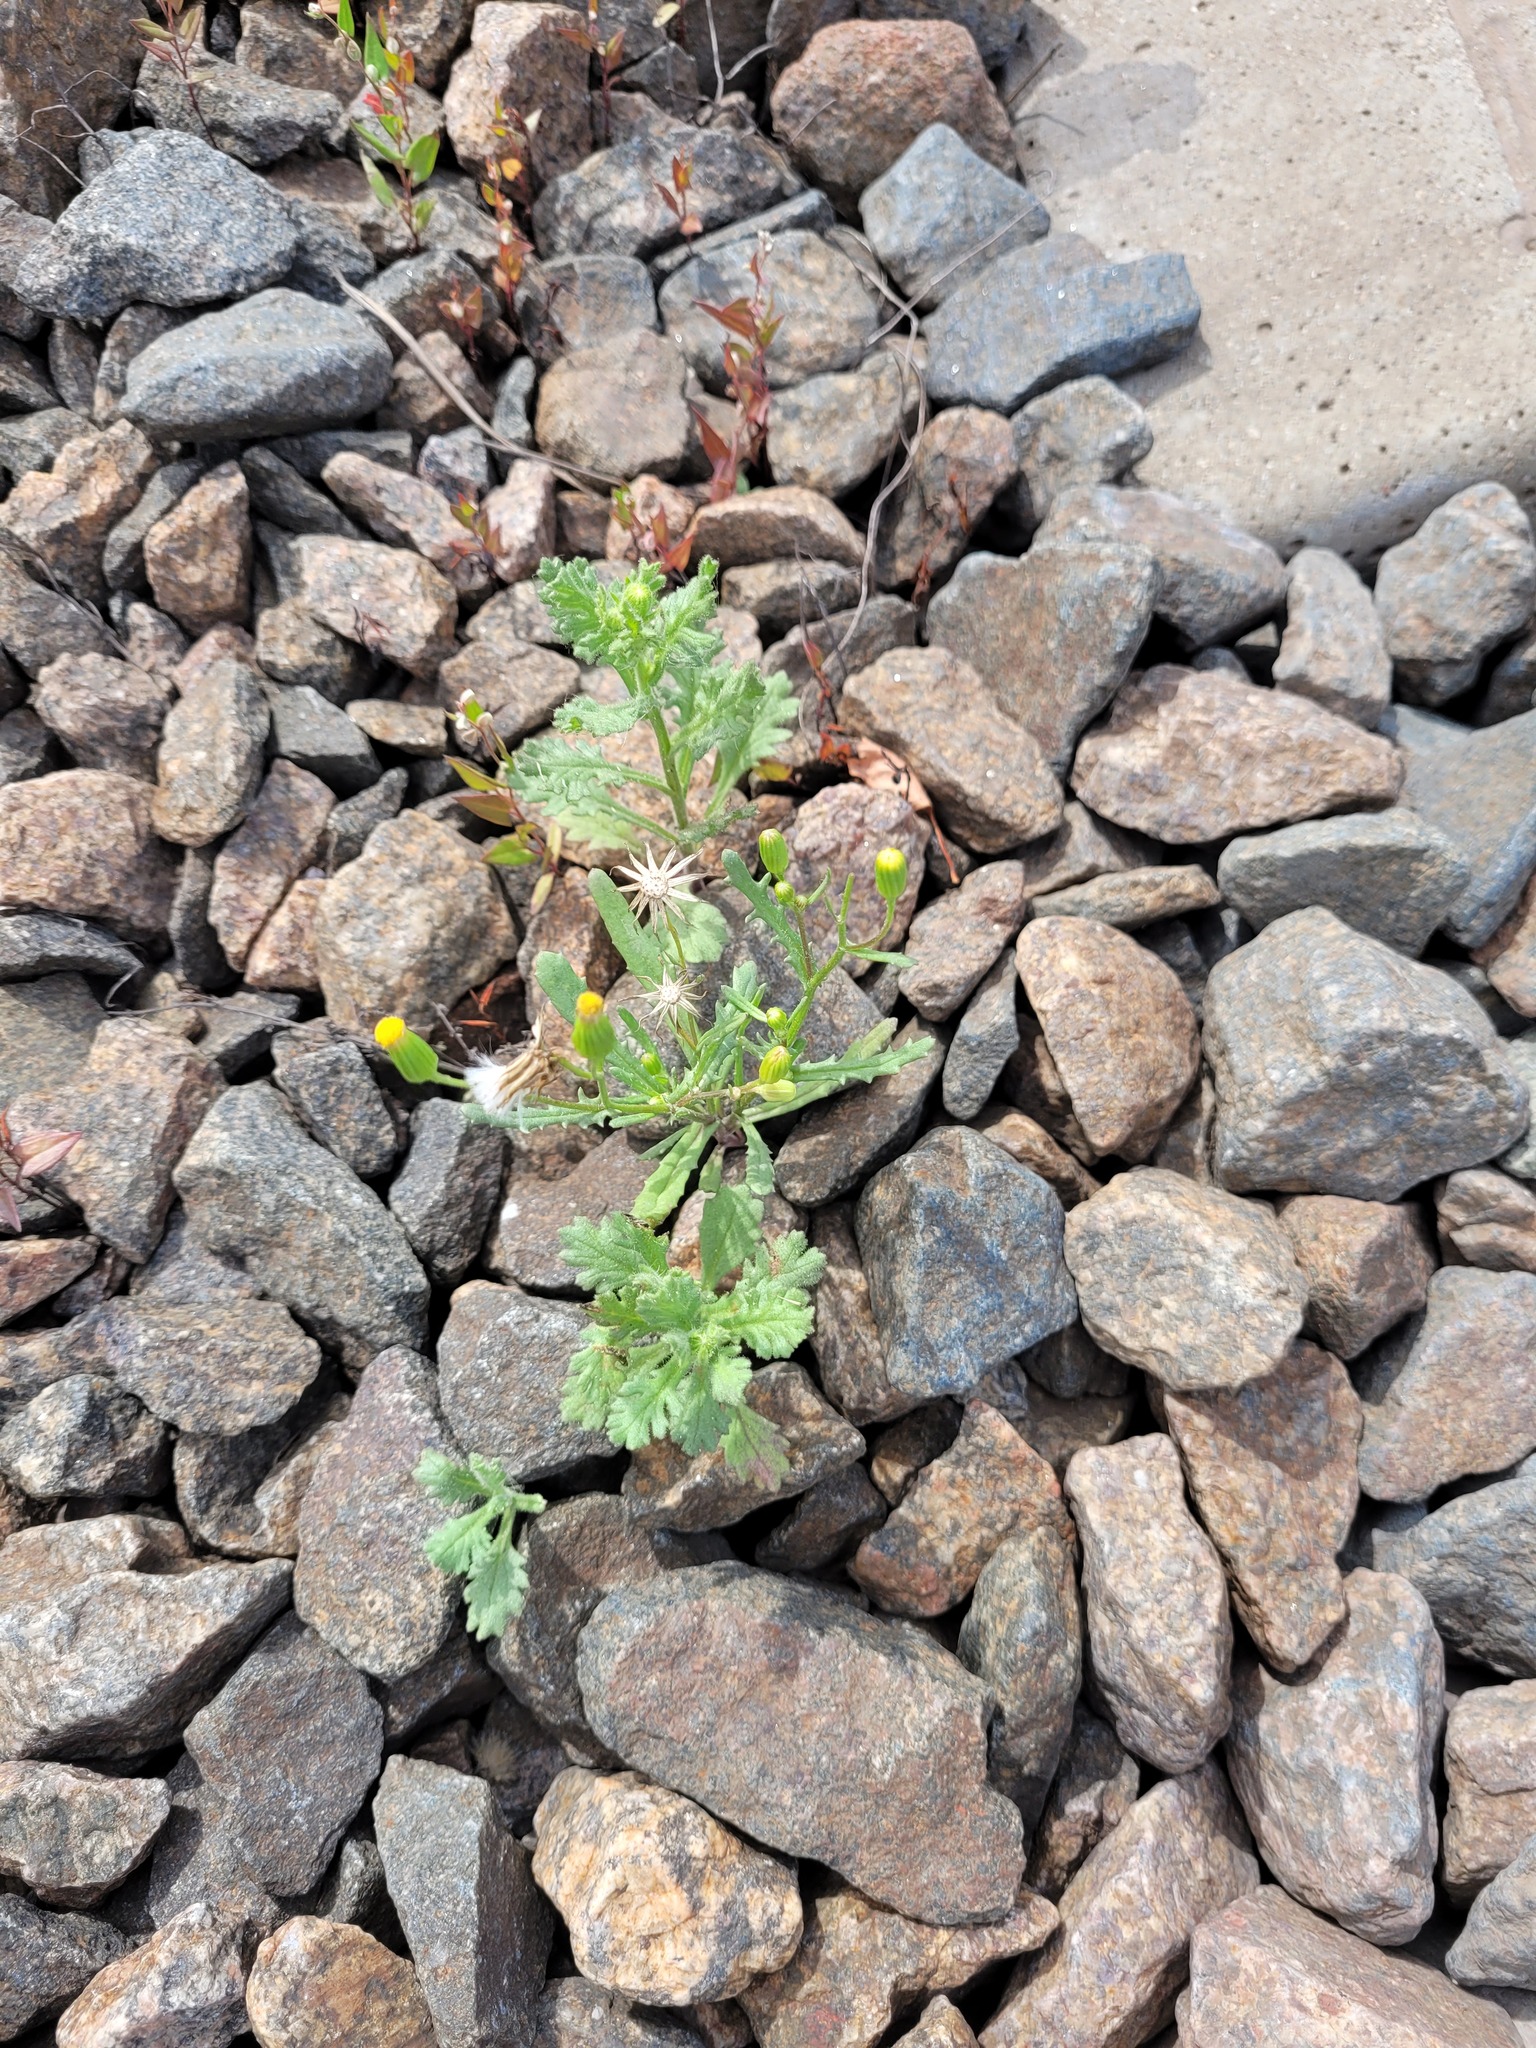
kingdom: Plantae
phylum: Tracheophyta
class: Magnoliopsida
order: Asterales
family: Asteraceae
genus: Senecio
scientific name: Senecio dubitabilis
